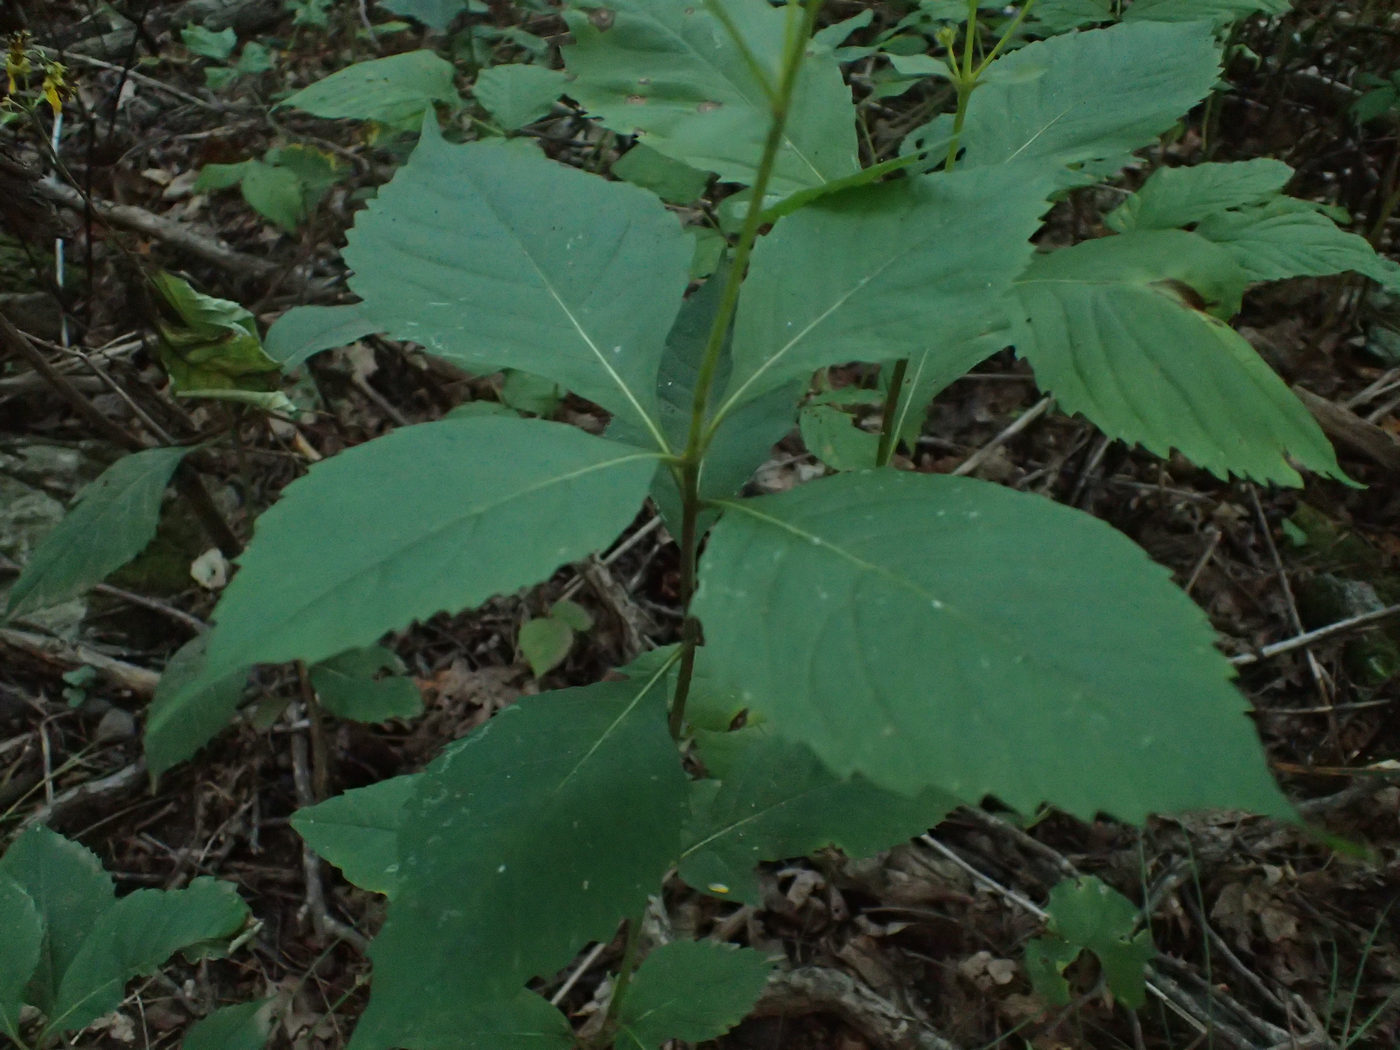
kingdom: Plantae
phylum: Tracheophyta
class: Magnoliopsida
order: Asterales
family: Asteraceae
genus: Coreopsis
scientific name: Coreopsis latifolia
